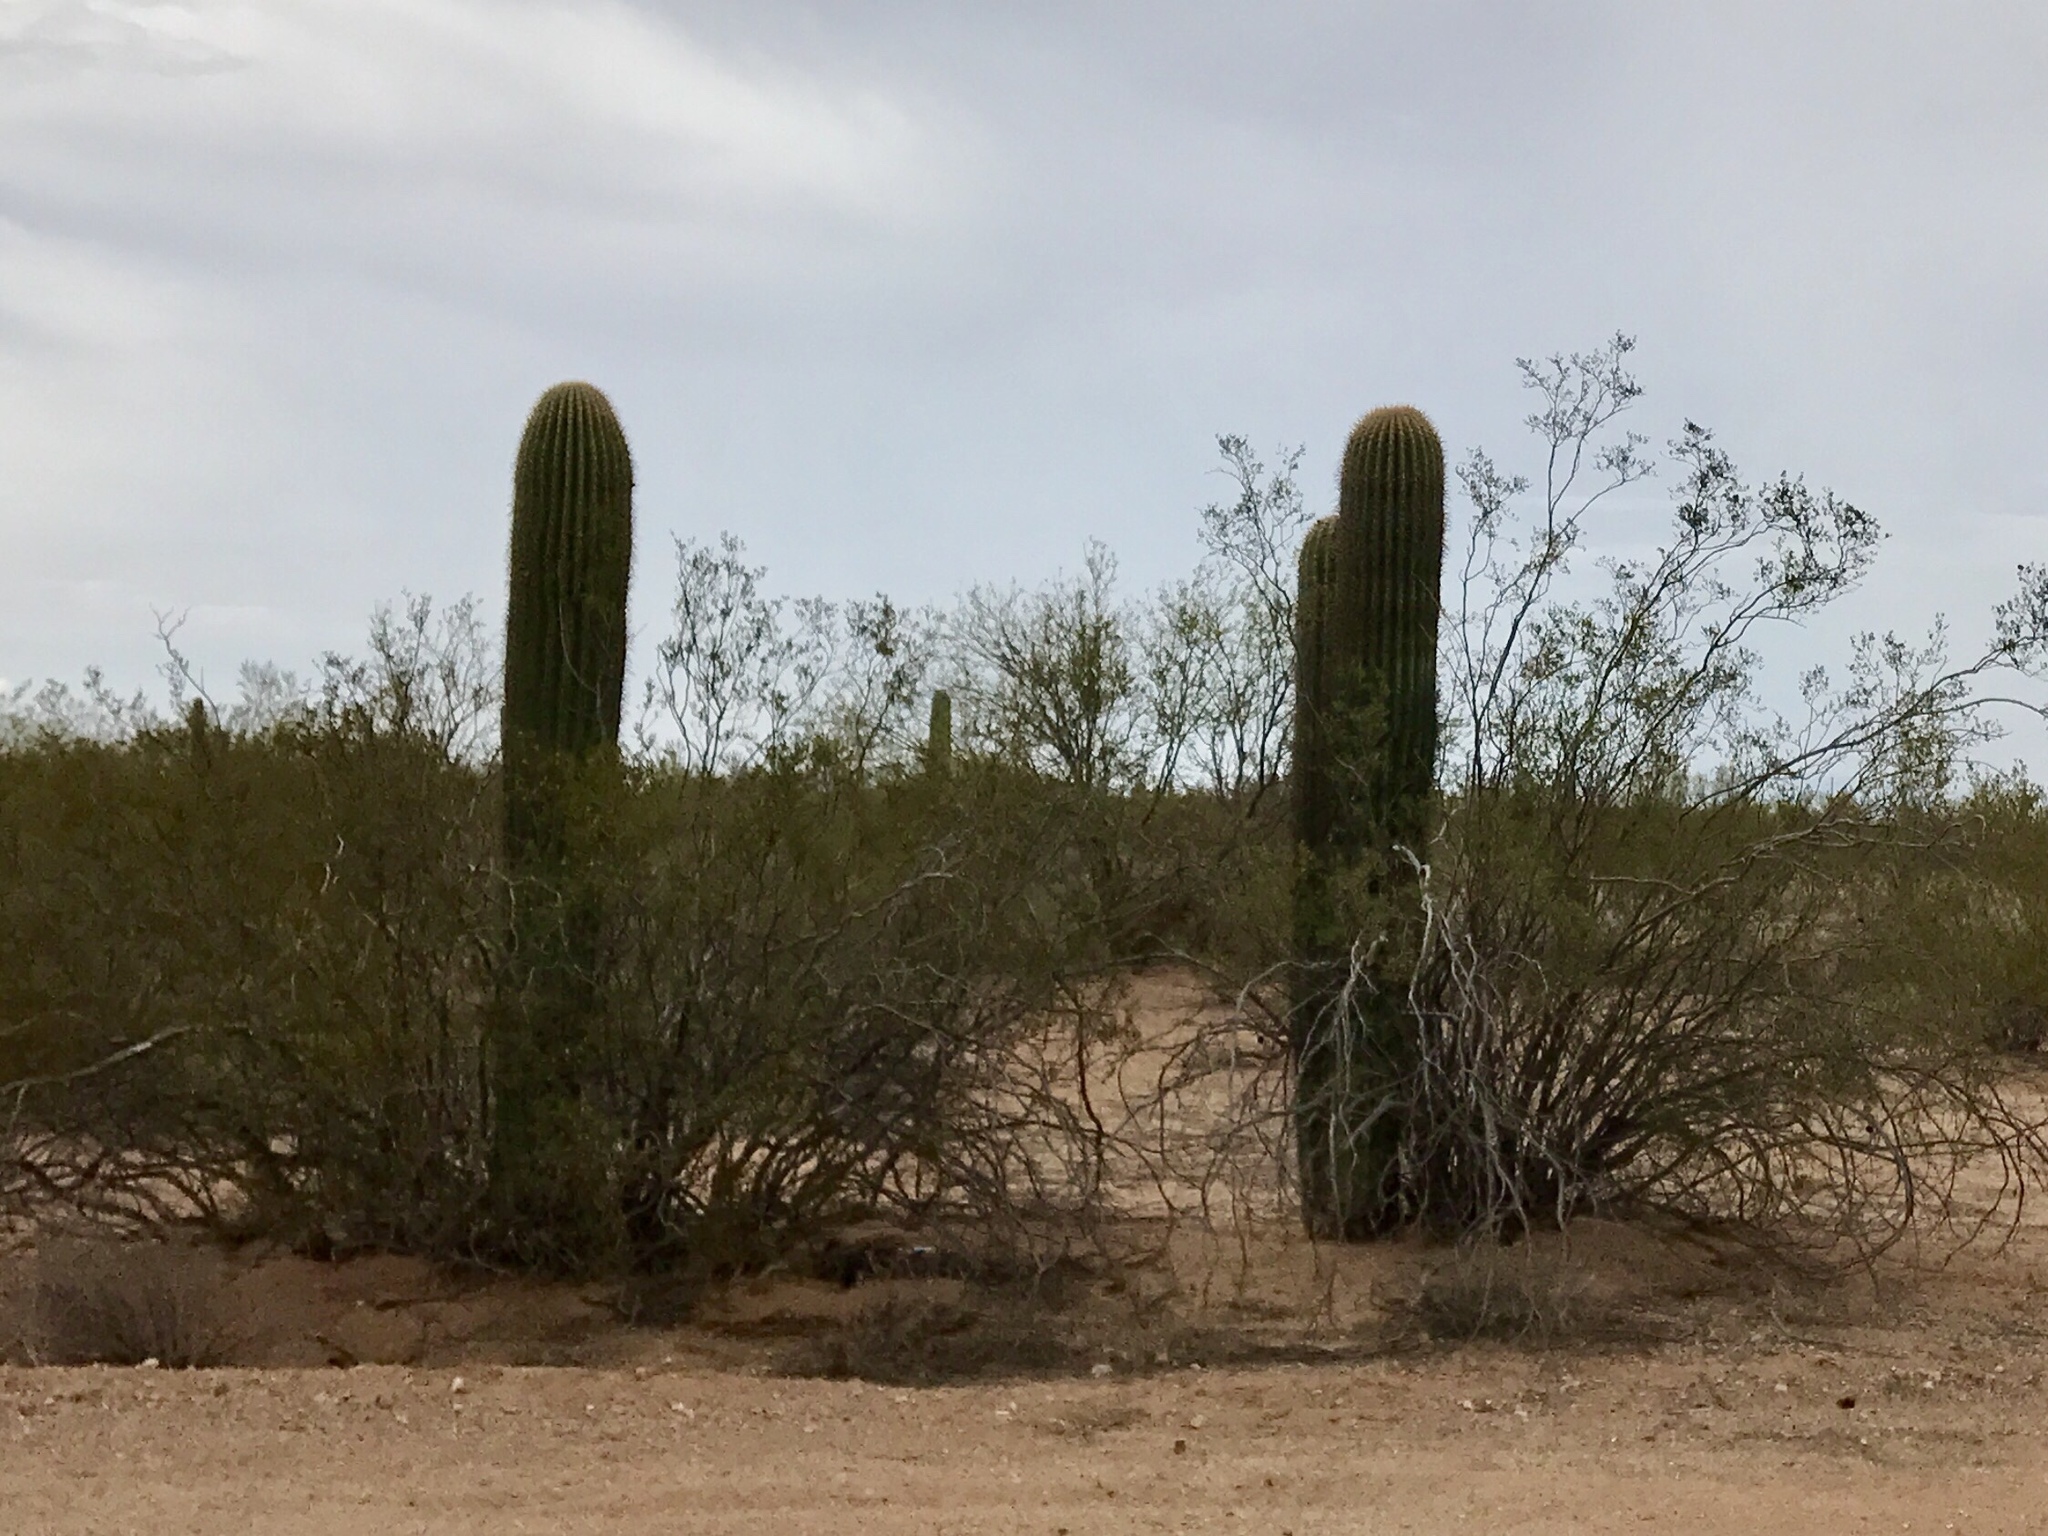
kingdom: Plantae
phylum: Tracheophyta
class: Magnoliopsida
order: Caryophyllales
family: Cactaceae
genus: Carnegiea
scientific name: Carnegiea gigantea
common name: Saguaro
